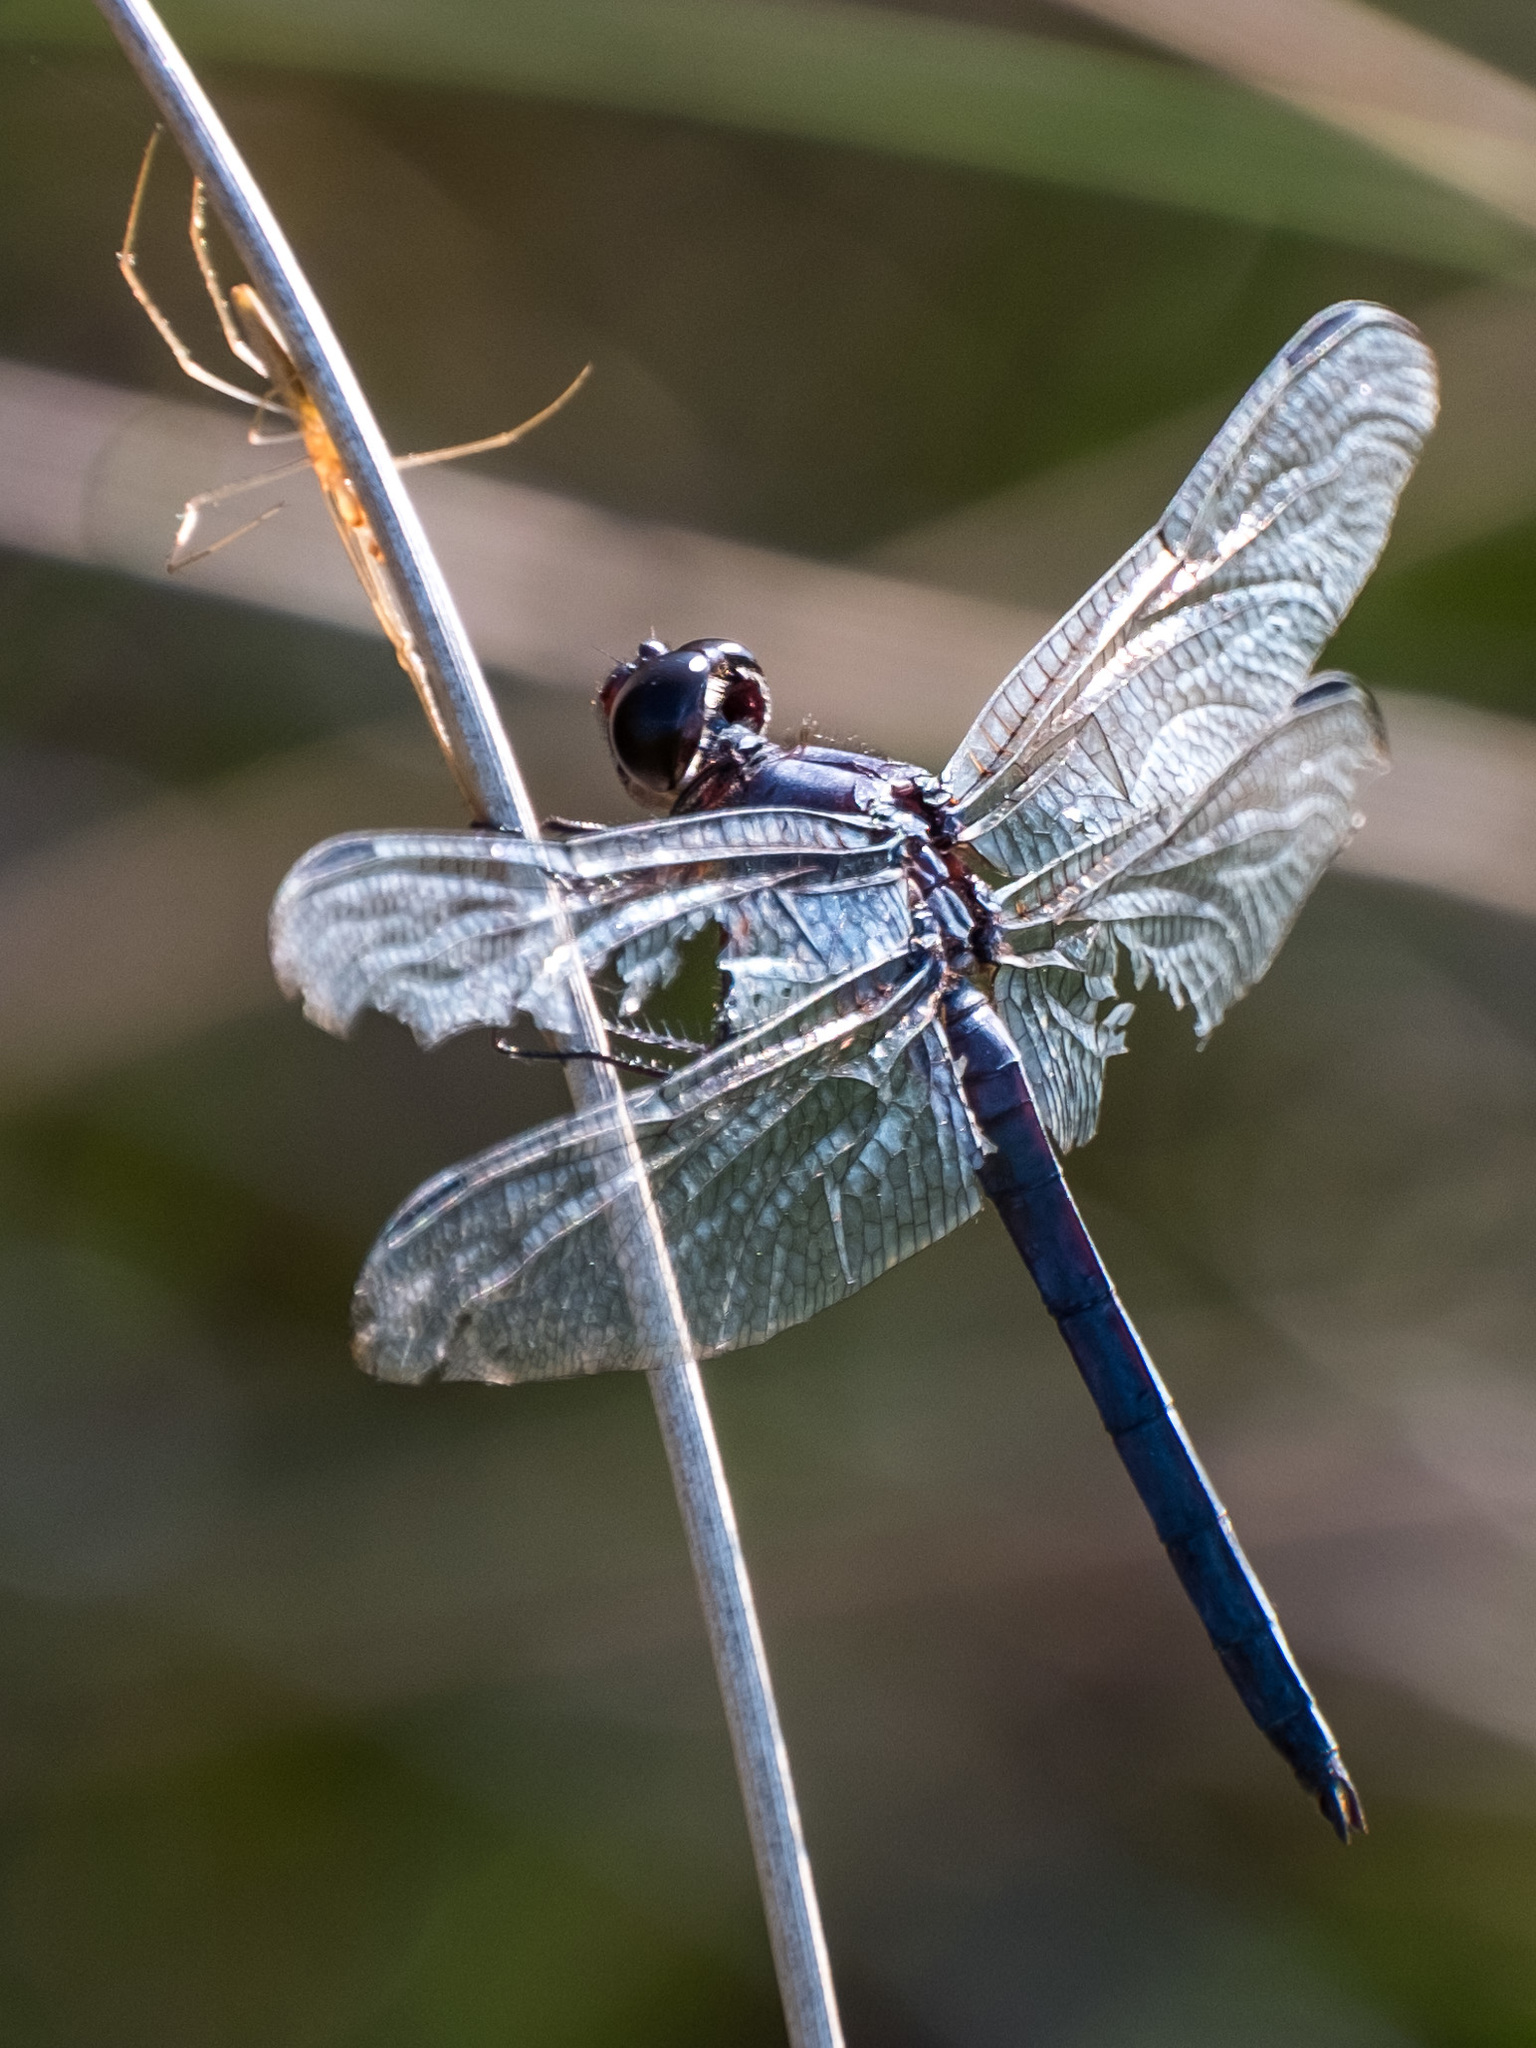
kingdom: Animalia
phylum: Arthropoda
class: Insecta
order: Odonata
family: Libellulidae
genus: Libellula
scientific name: Libellula incesta
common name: Slaty skimmer
